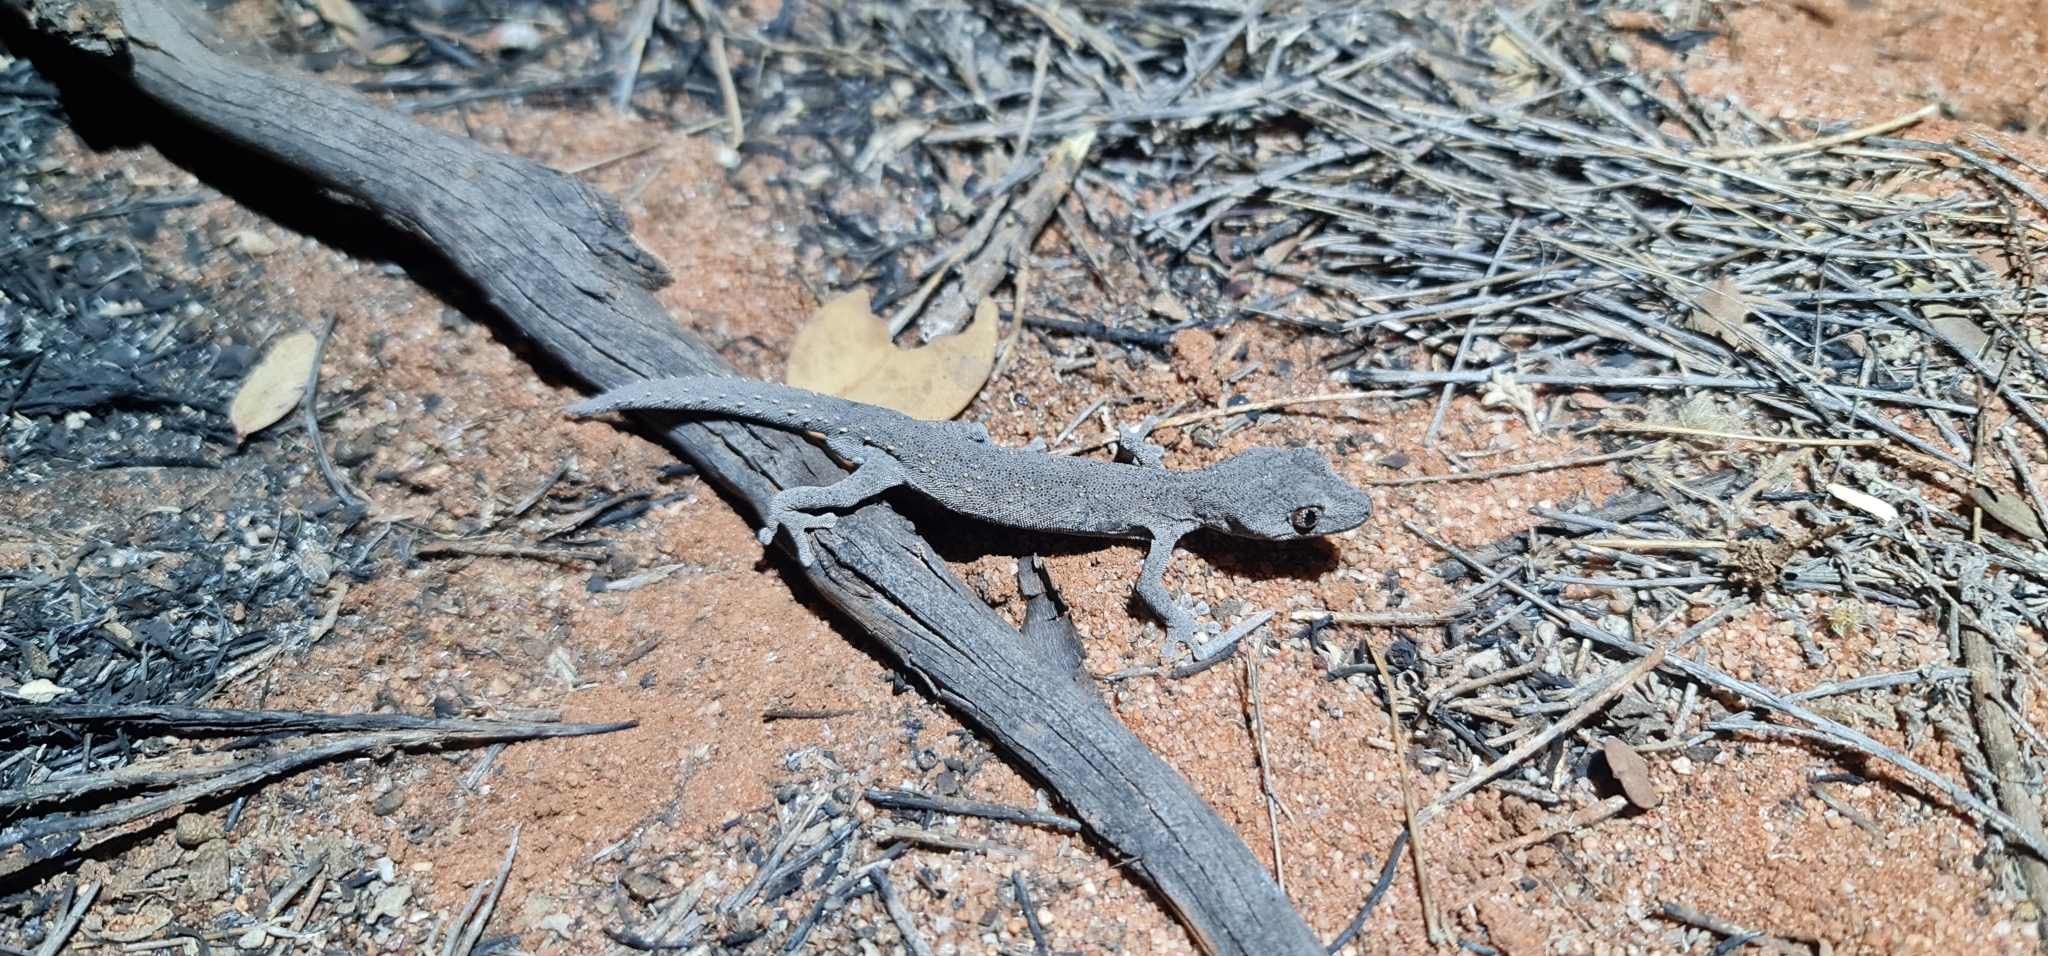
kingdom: Animalia
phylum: Chordata
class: Squamata
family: Diplodactylidae
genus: Strophurus
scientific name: Strophurus williamsi
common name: Eastern spiny-tailed gecko
